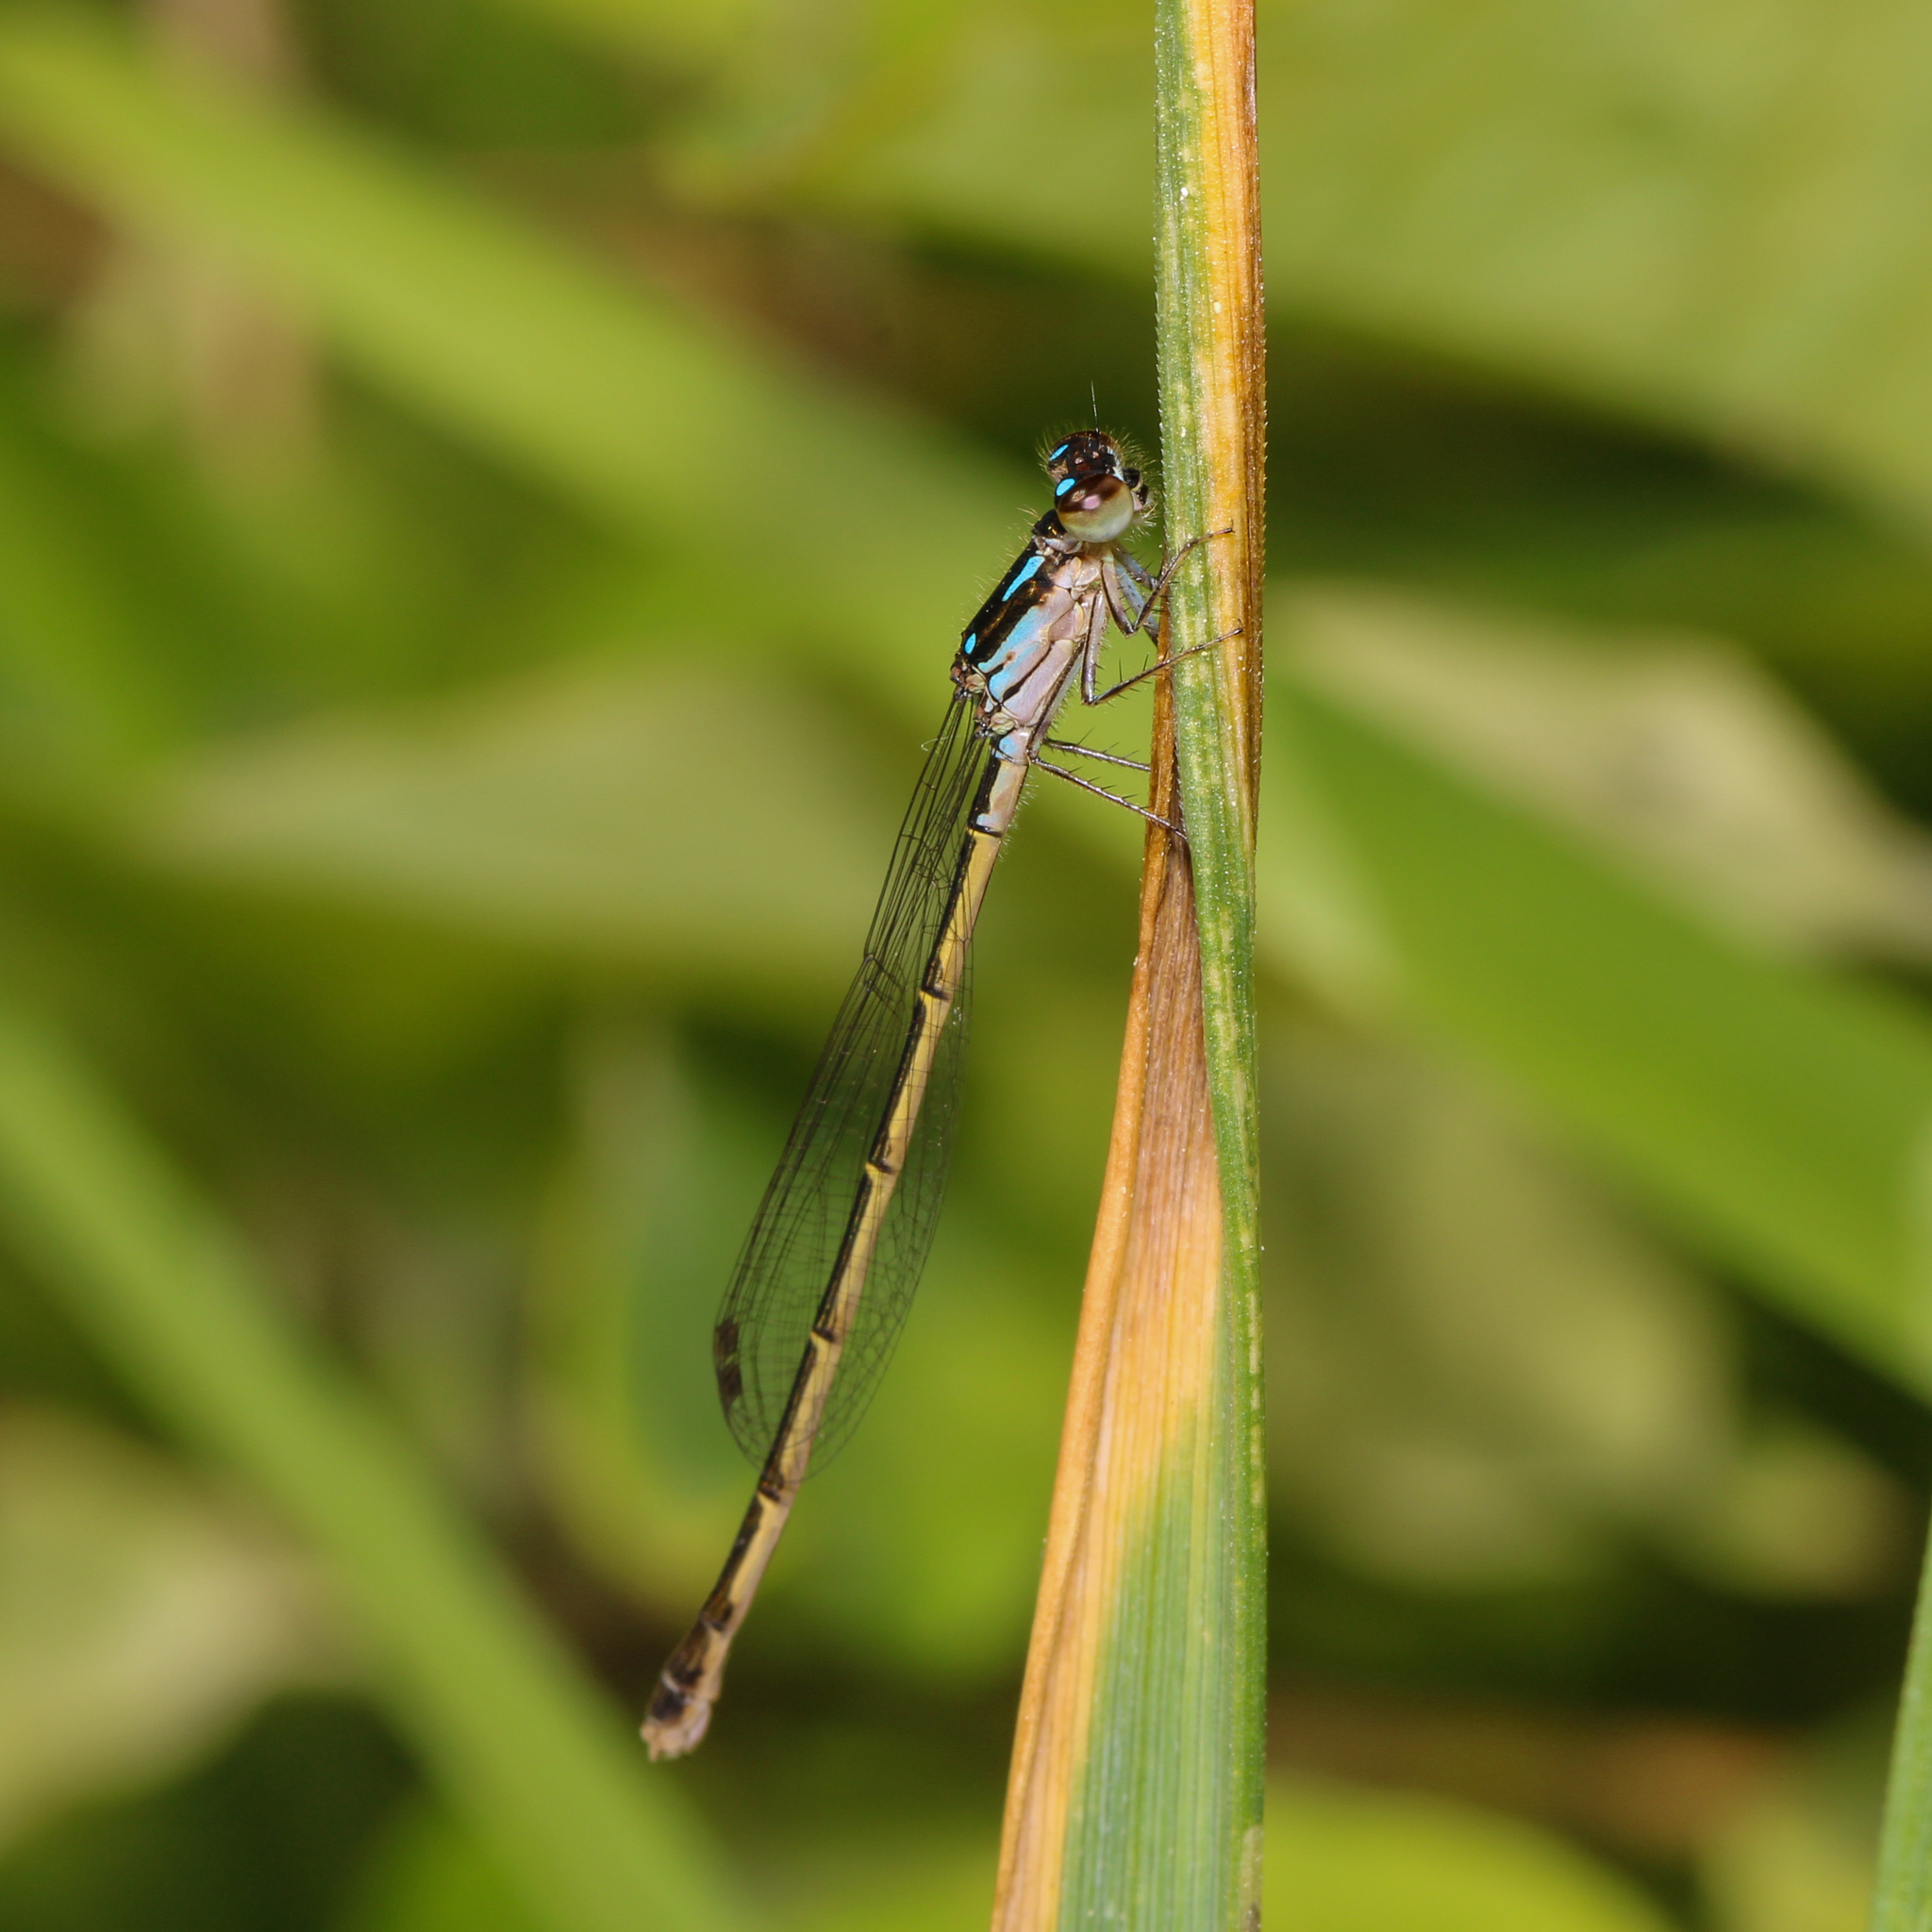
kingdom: Animalia
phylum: Arthropoda
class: Insecta
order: Odonata
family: Coenagrionidae
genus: Ischnura
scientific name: Ischnura posita
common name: Fragile forktail
